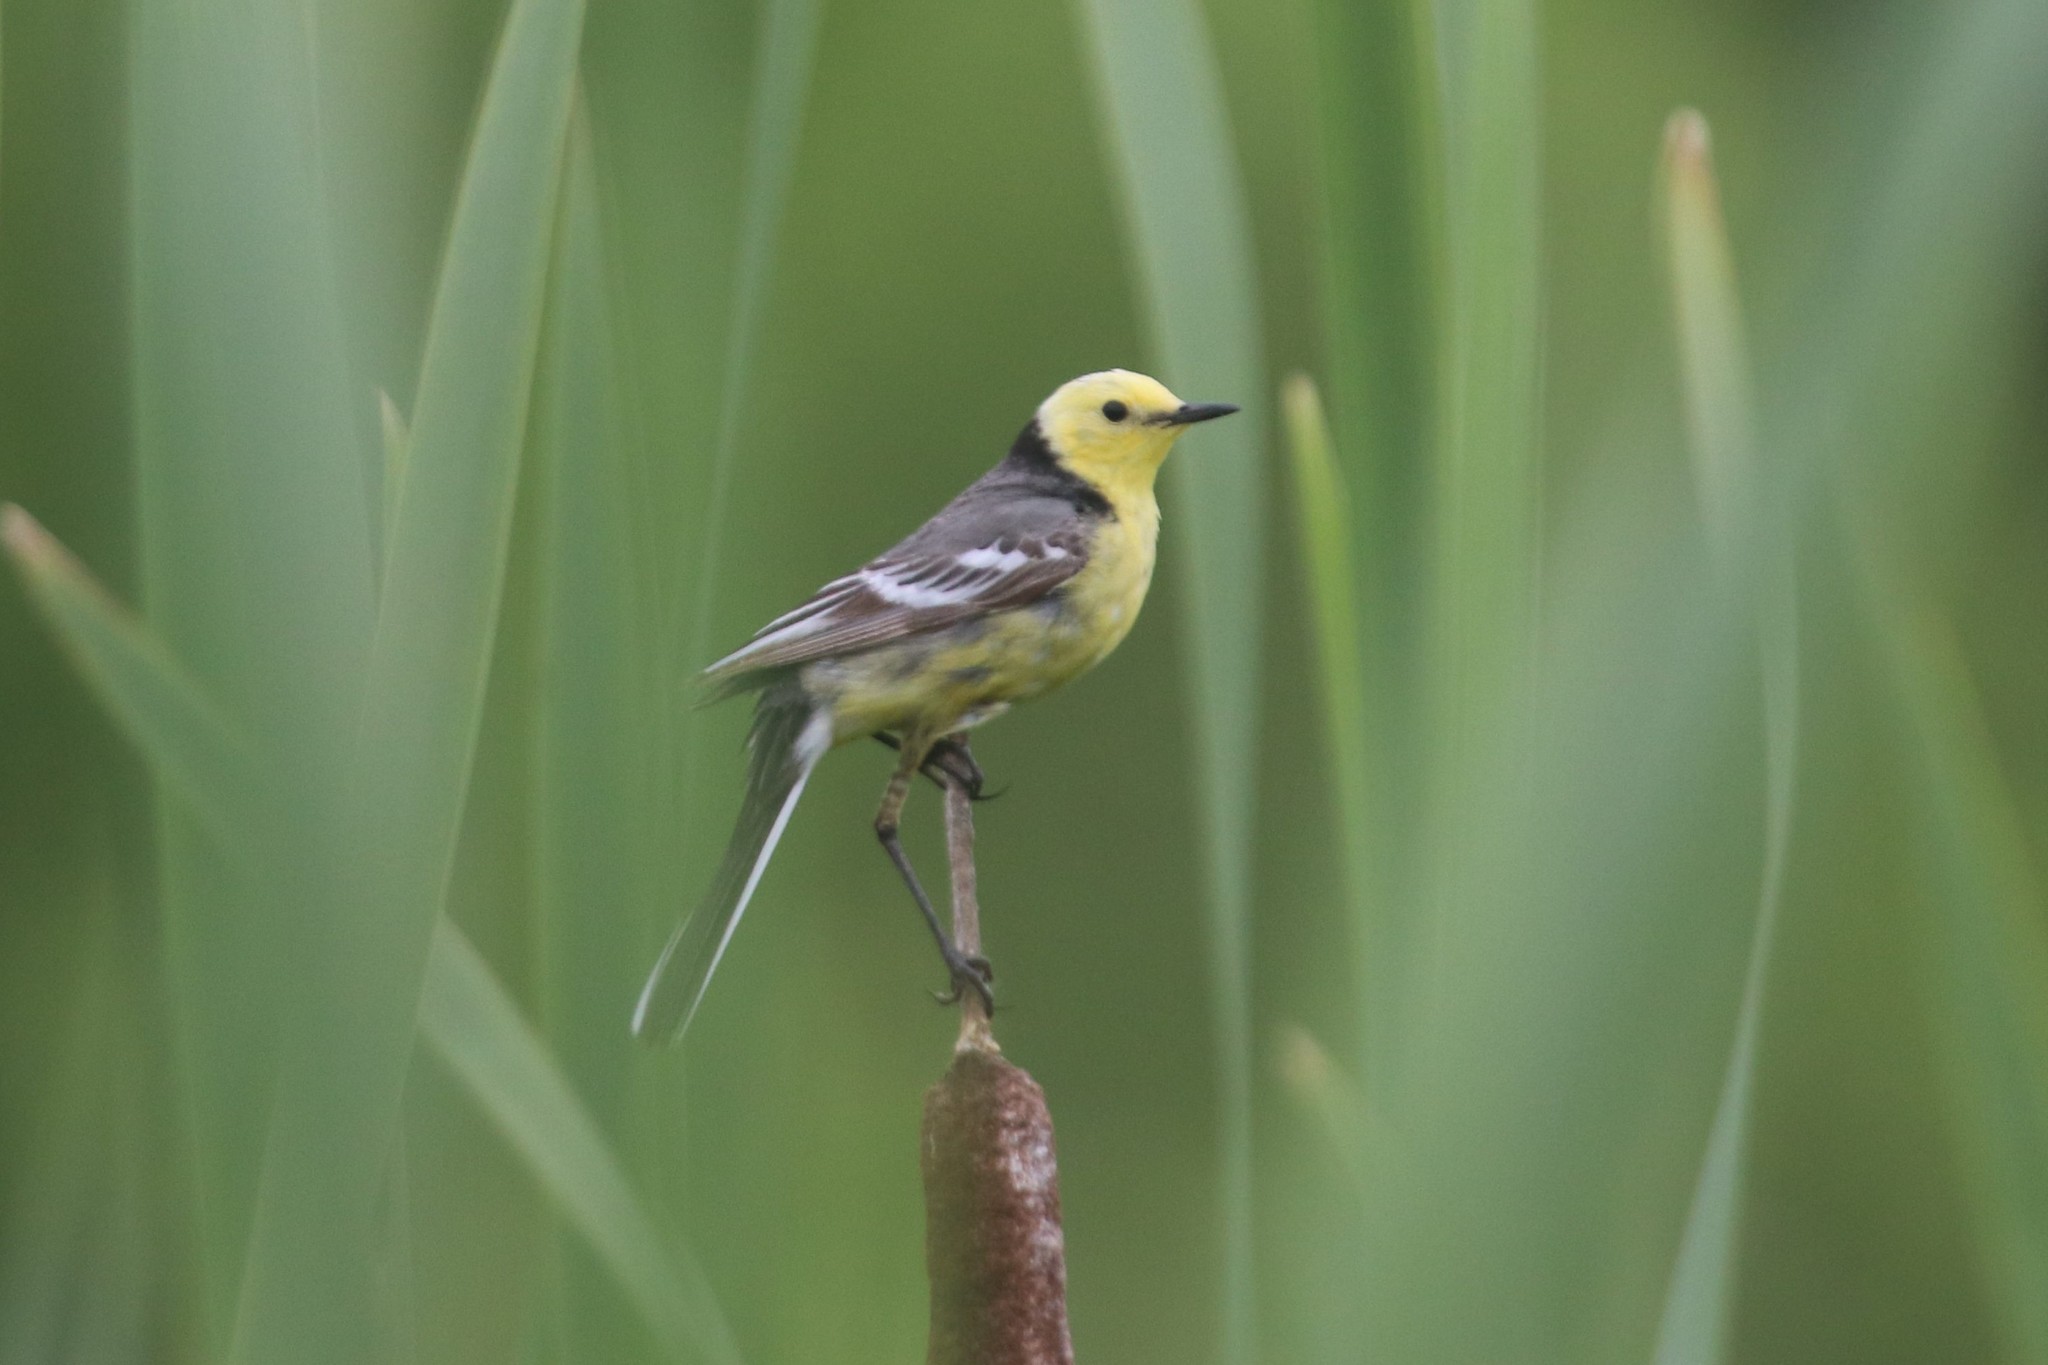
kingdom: Animalia
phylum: Chordata
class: Aves
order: Passeriformes
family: Motacillidae
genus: Motacilla
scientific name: Motacilla citreola
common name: Citrine wagtail
